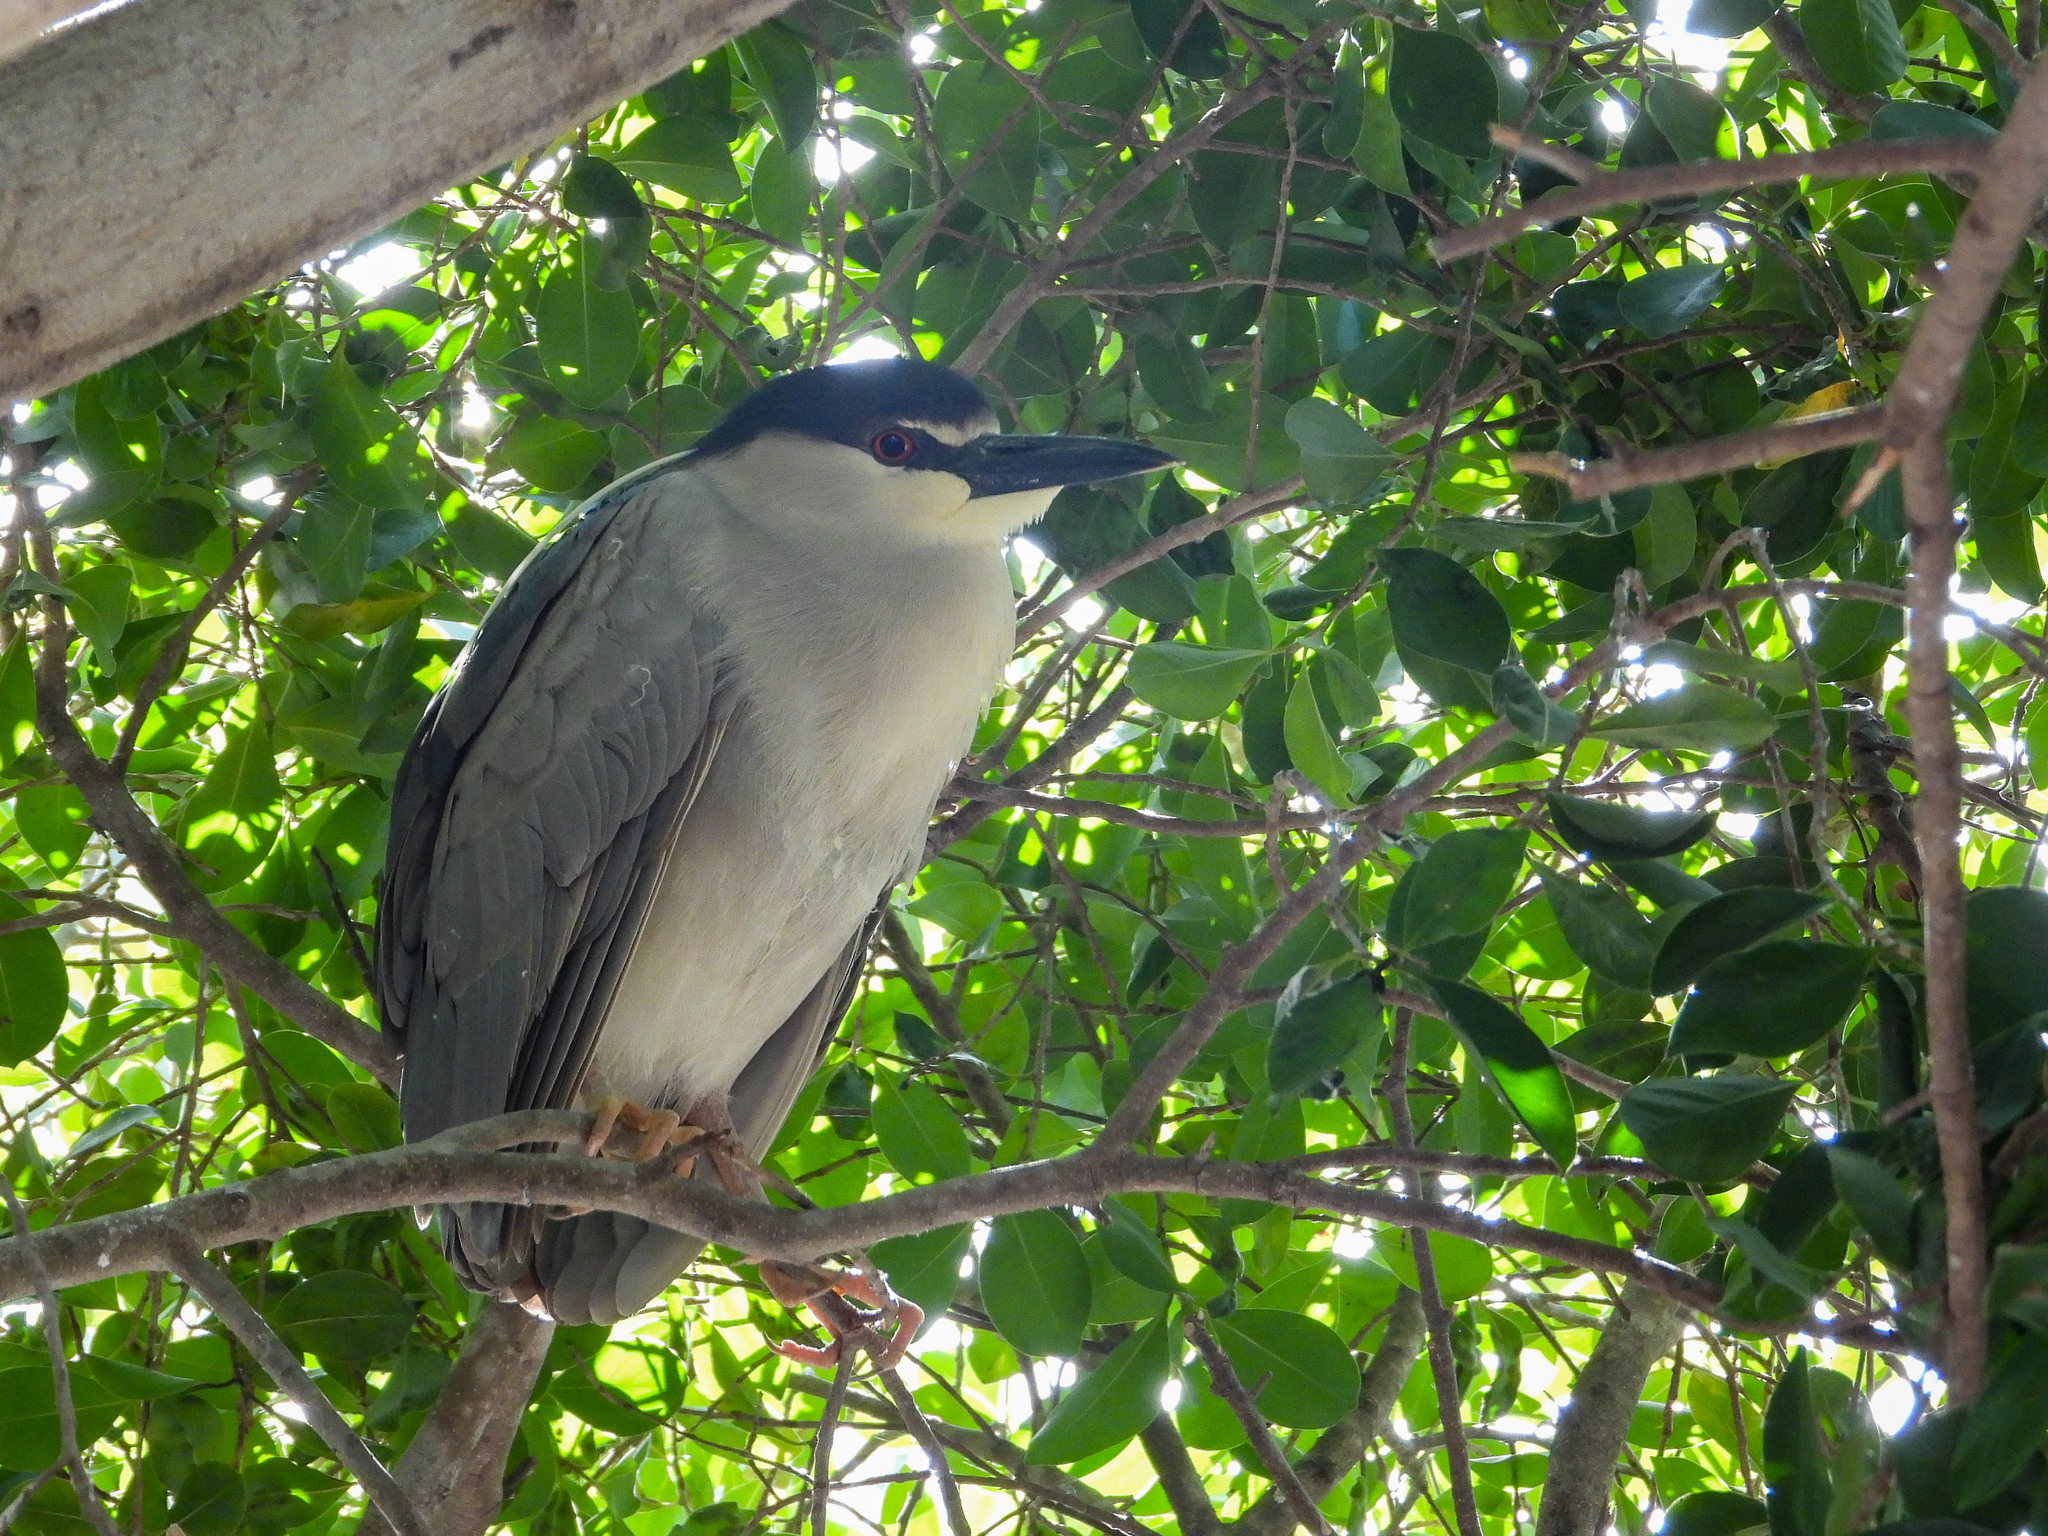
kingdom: Animalia
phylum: Chordata
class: Aves
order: Pelecaniformes
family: Ardeidae
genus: Nycticorax
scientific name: Nycticorax nycticorax
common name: Black-crowned night heron
